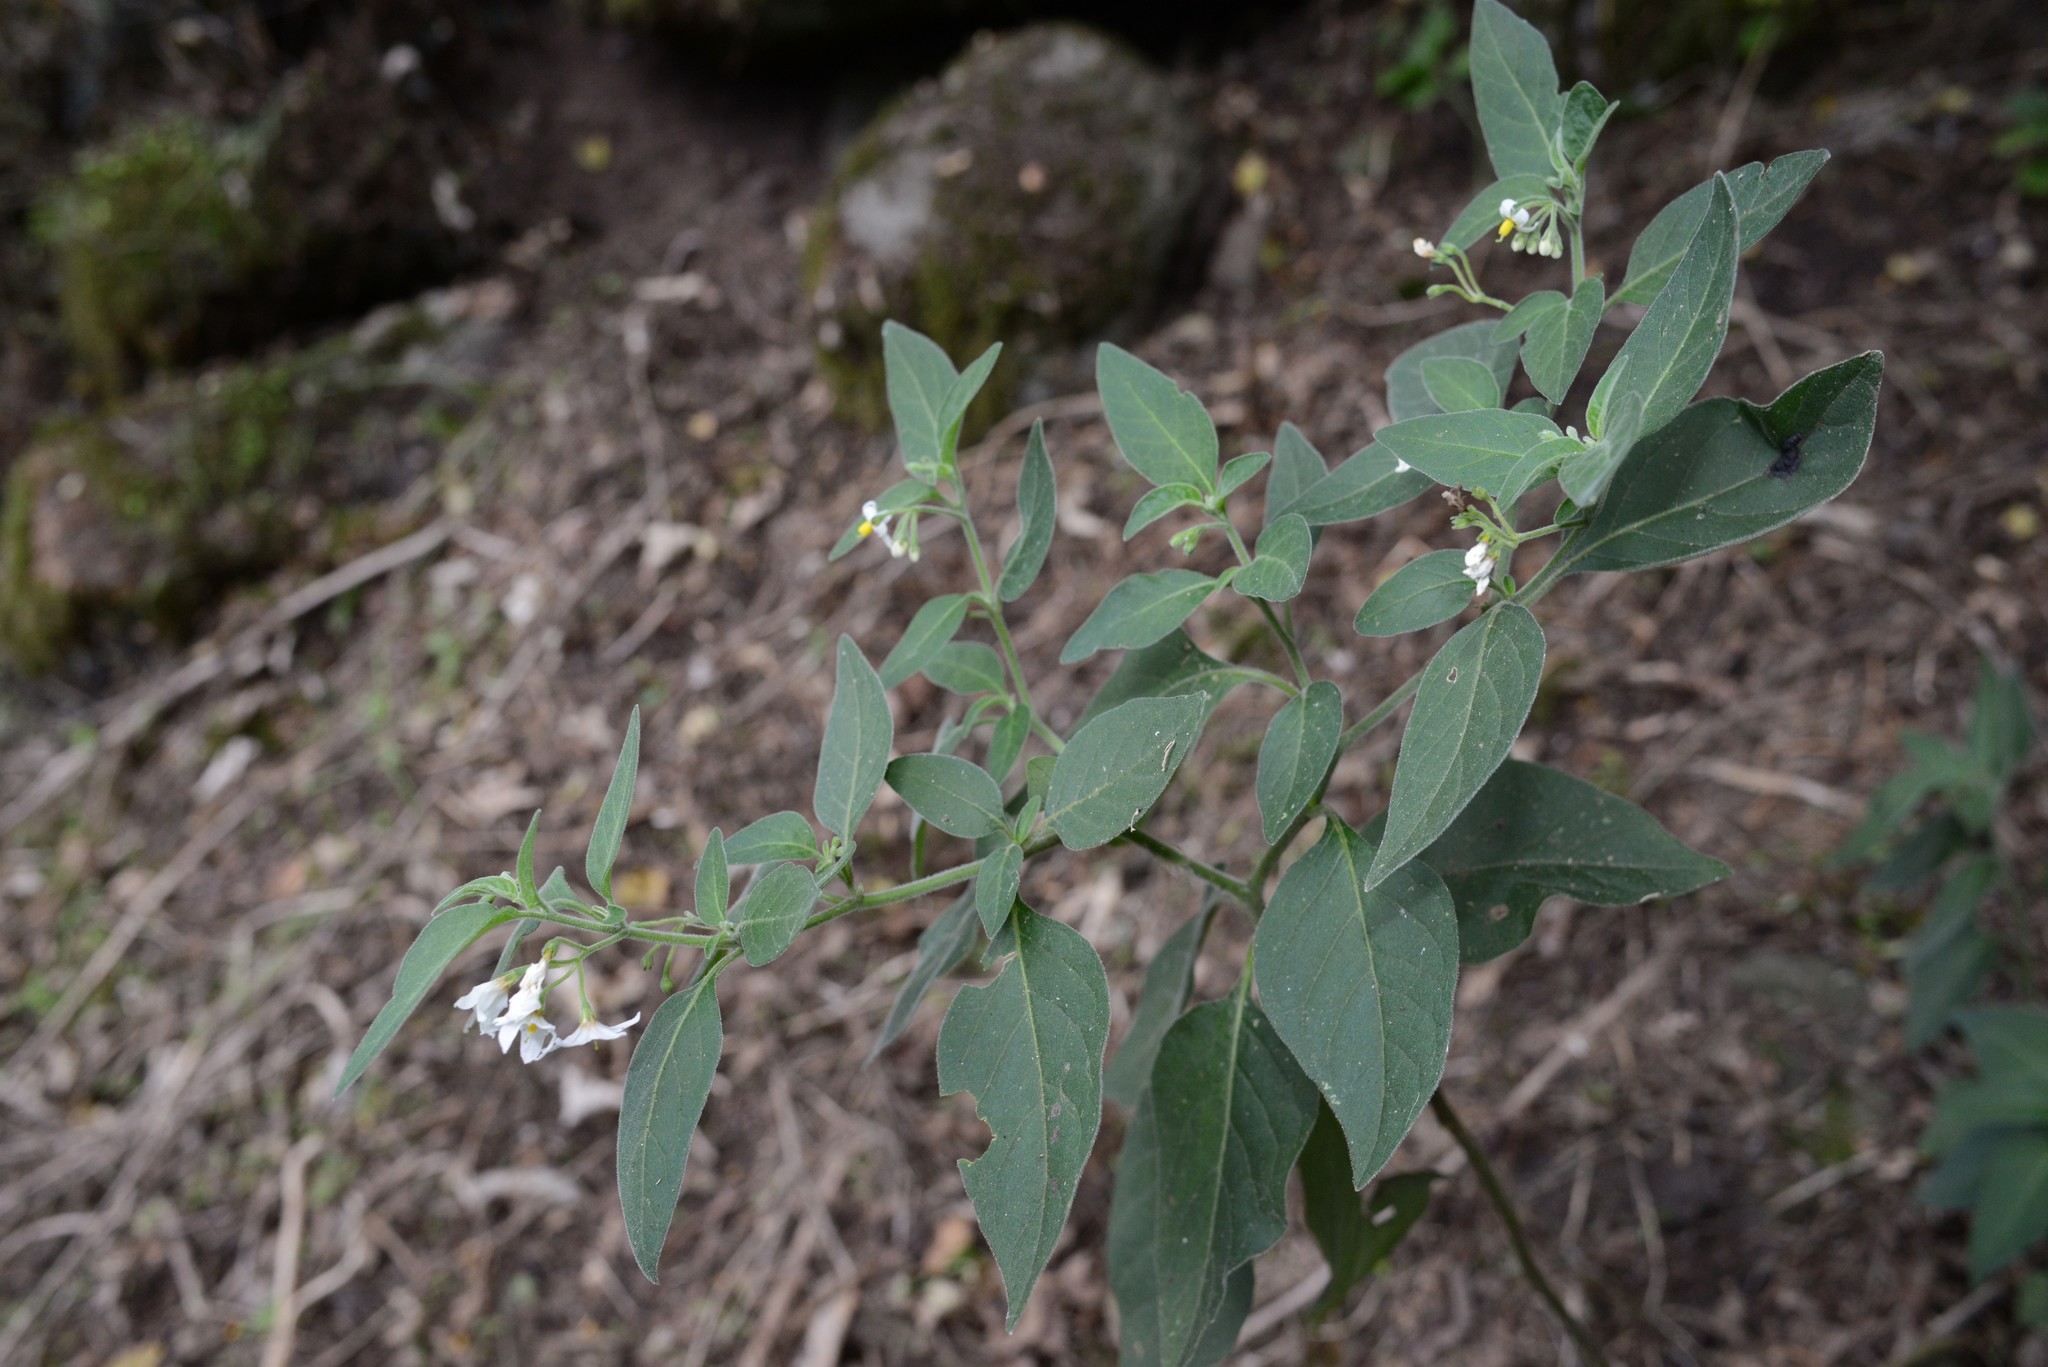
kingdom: Plantae
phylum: Tracheophyta
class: Magnoliopsida
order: Solanales
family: Solanaceae
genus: Solanum
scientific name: Solanum chenopodioides
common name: Tall nightshade
